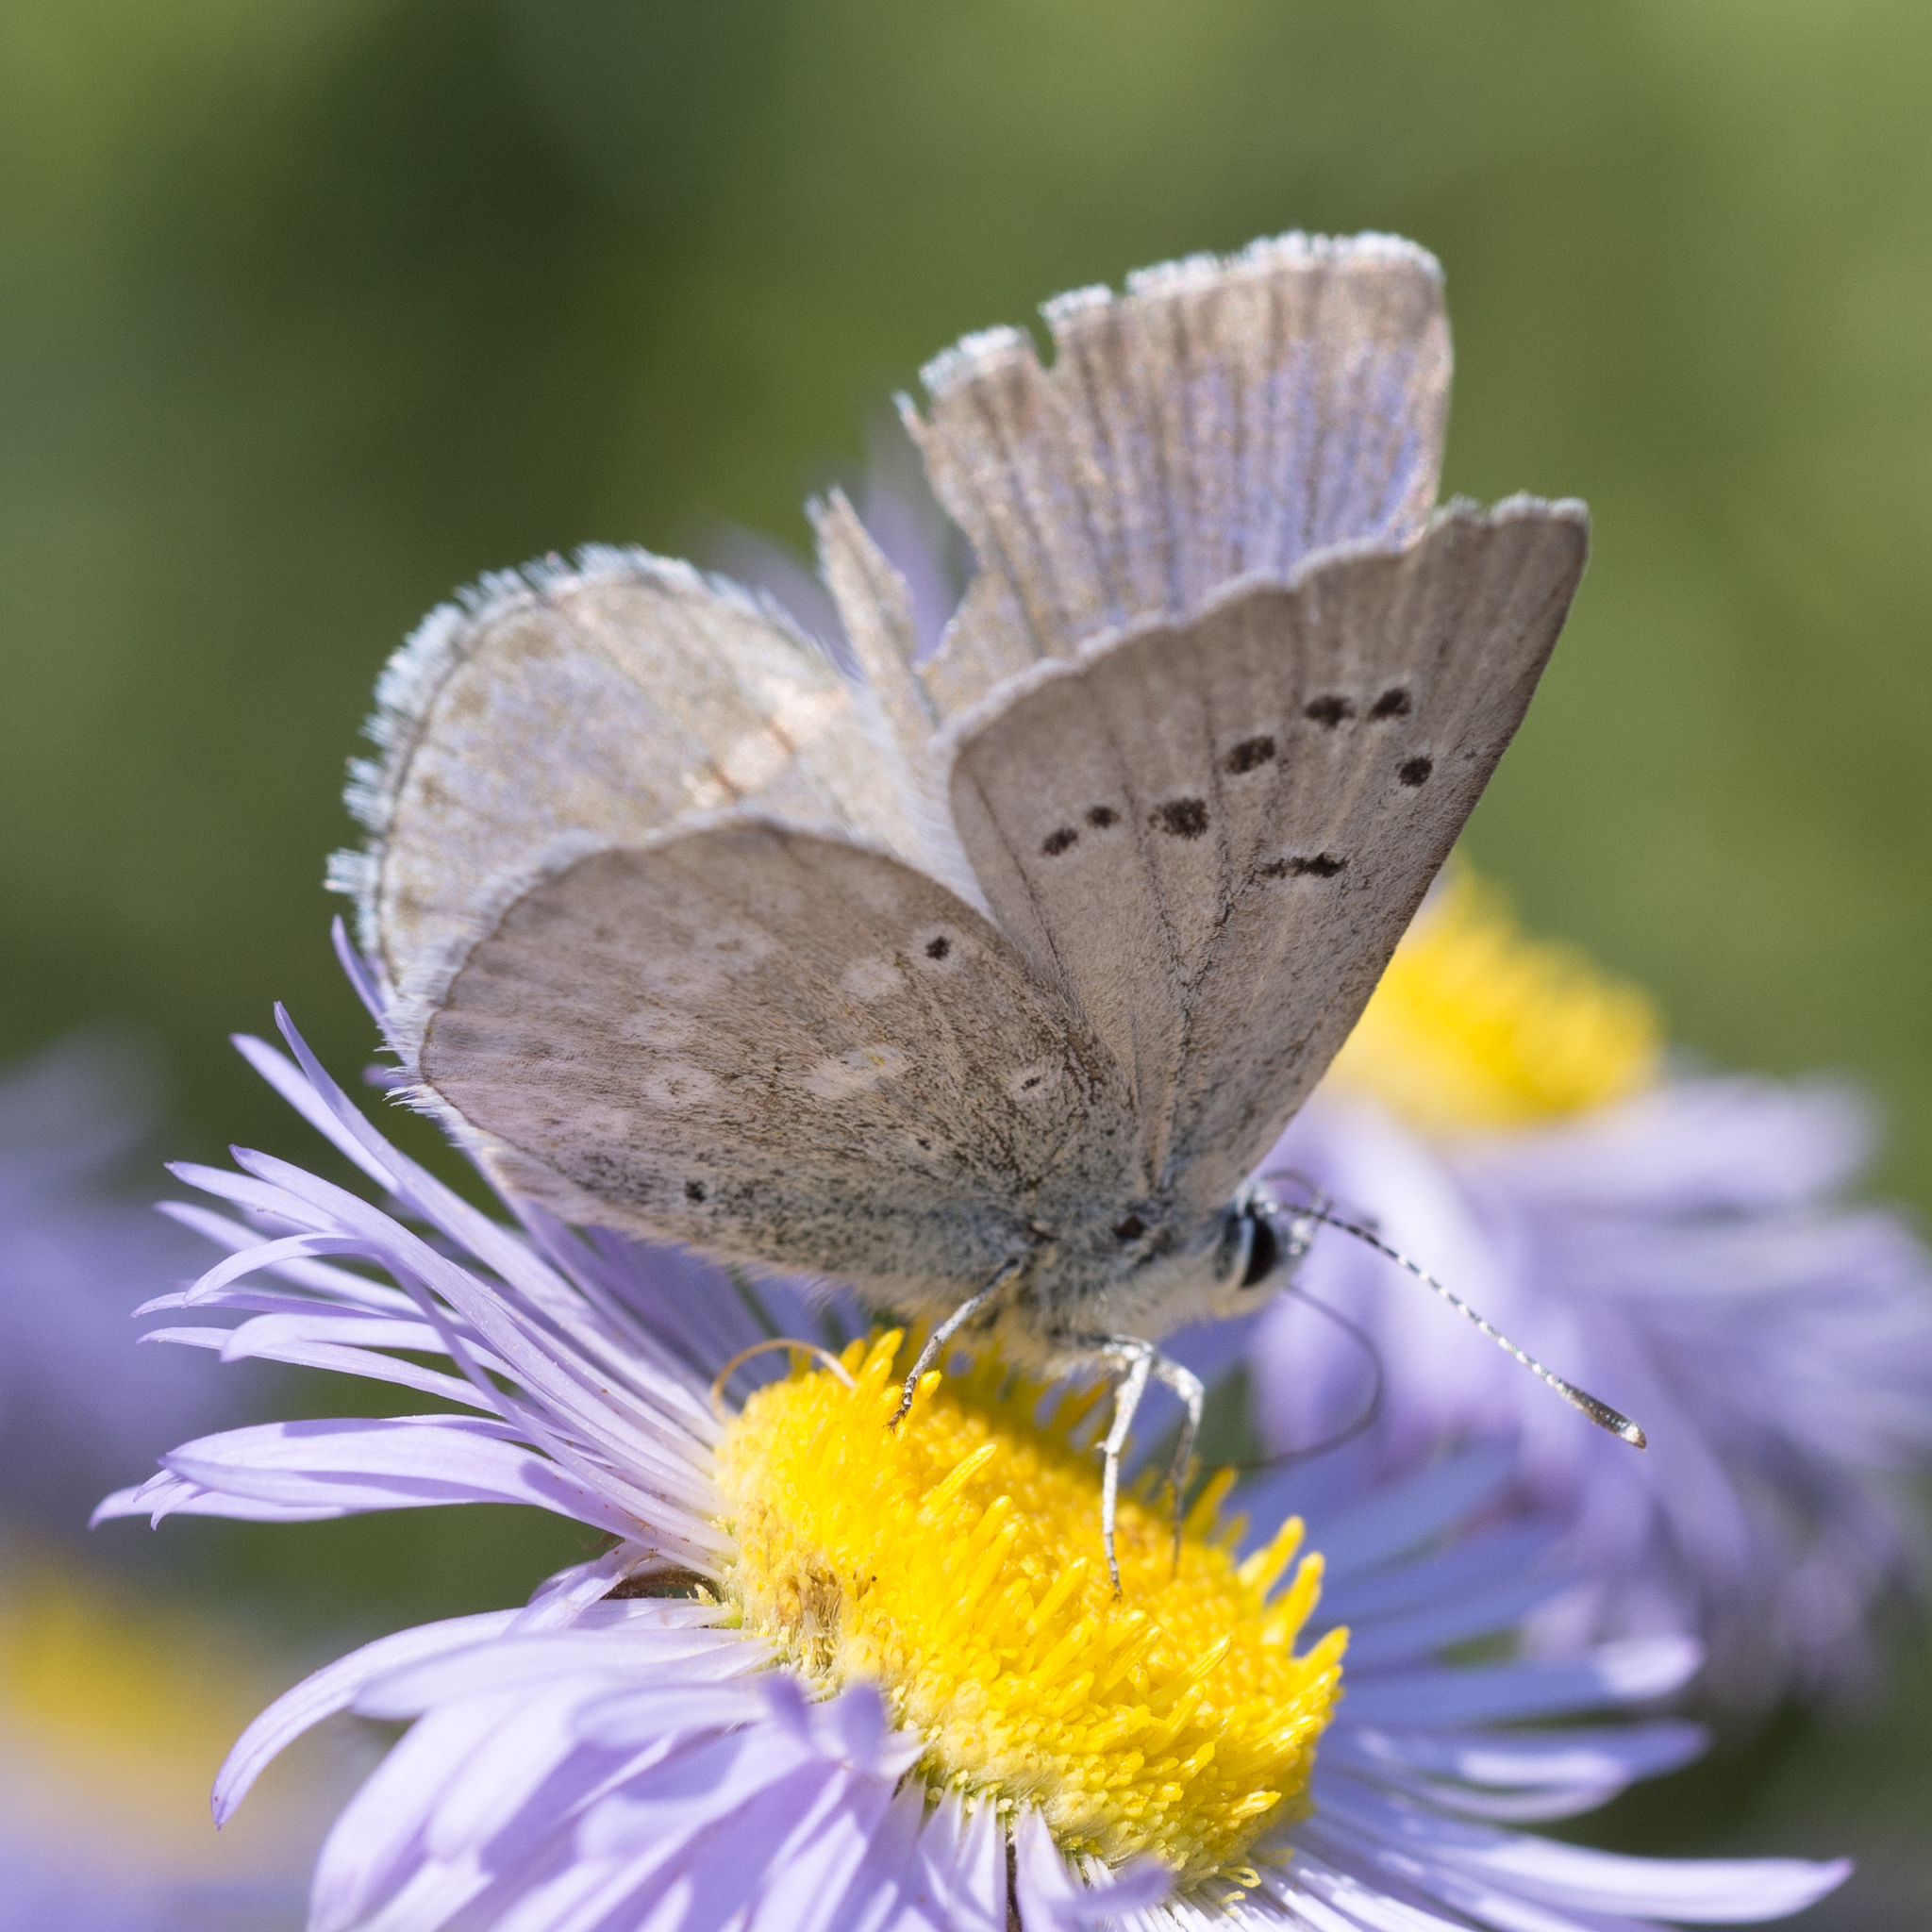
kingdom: Animalia
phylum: Arthropoda
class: Insecta
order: Lepidoptera
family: Lycaenidae
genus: Icaricia
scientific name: Icaricia icarioides
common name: Boisduval's blue
